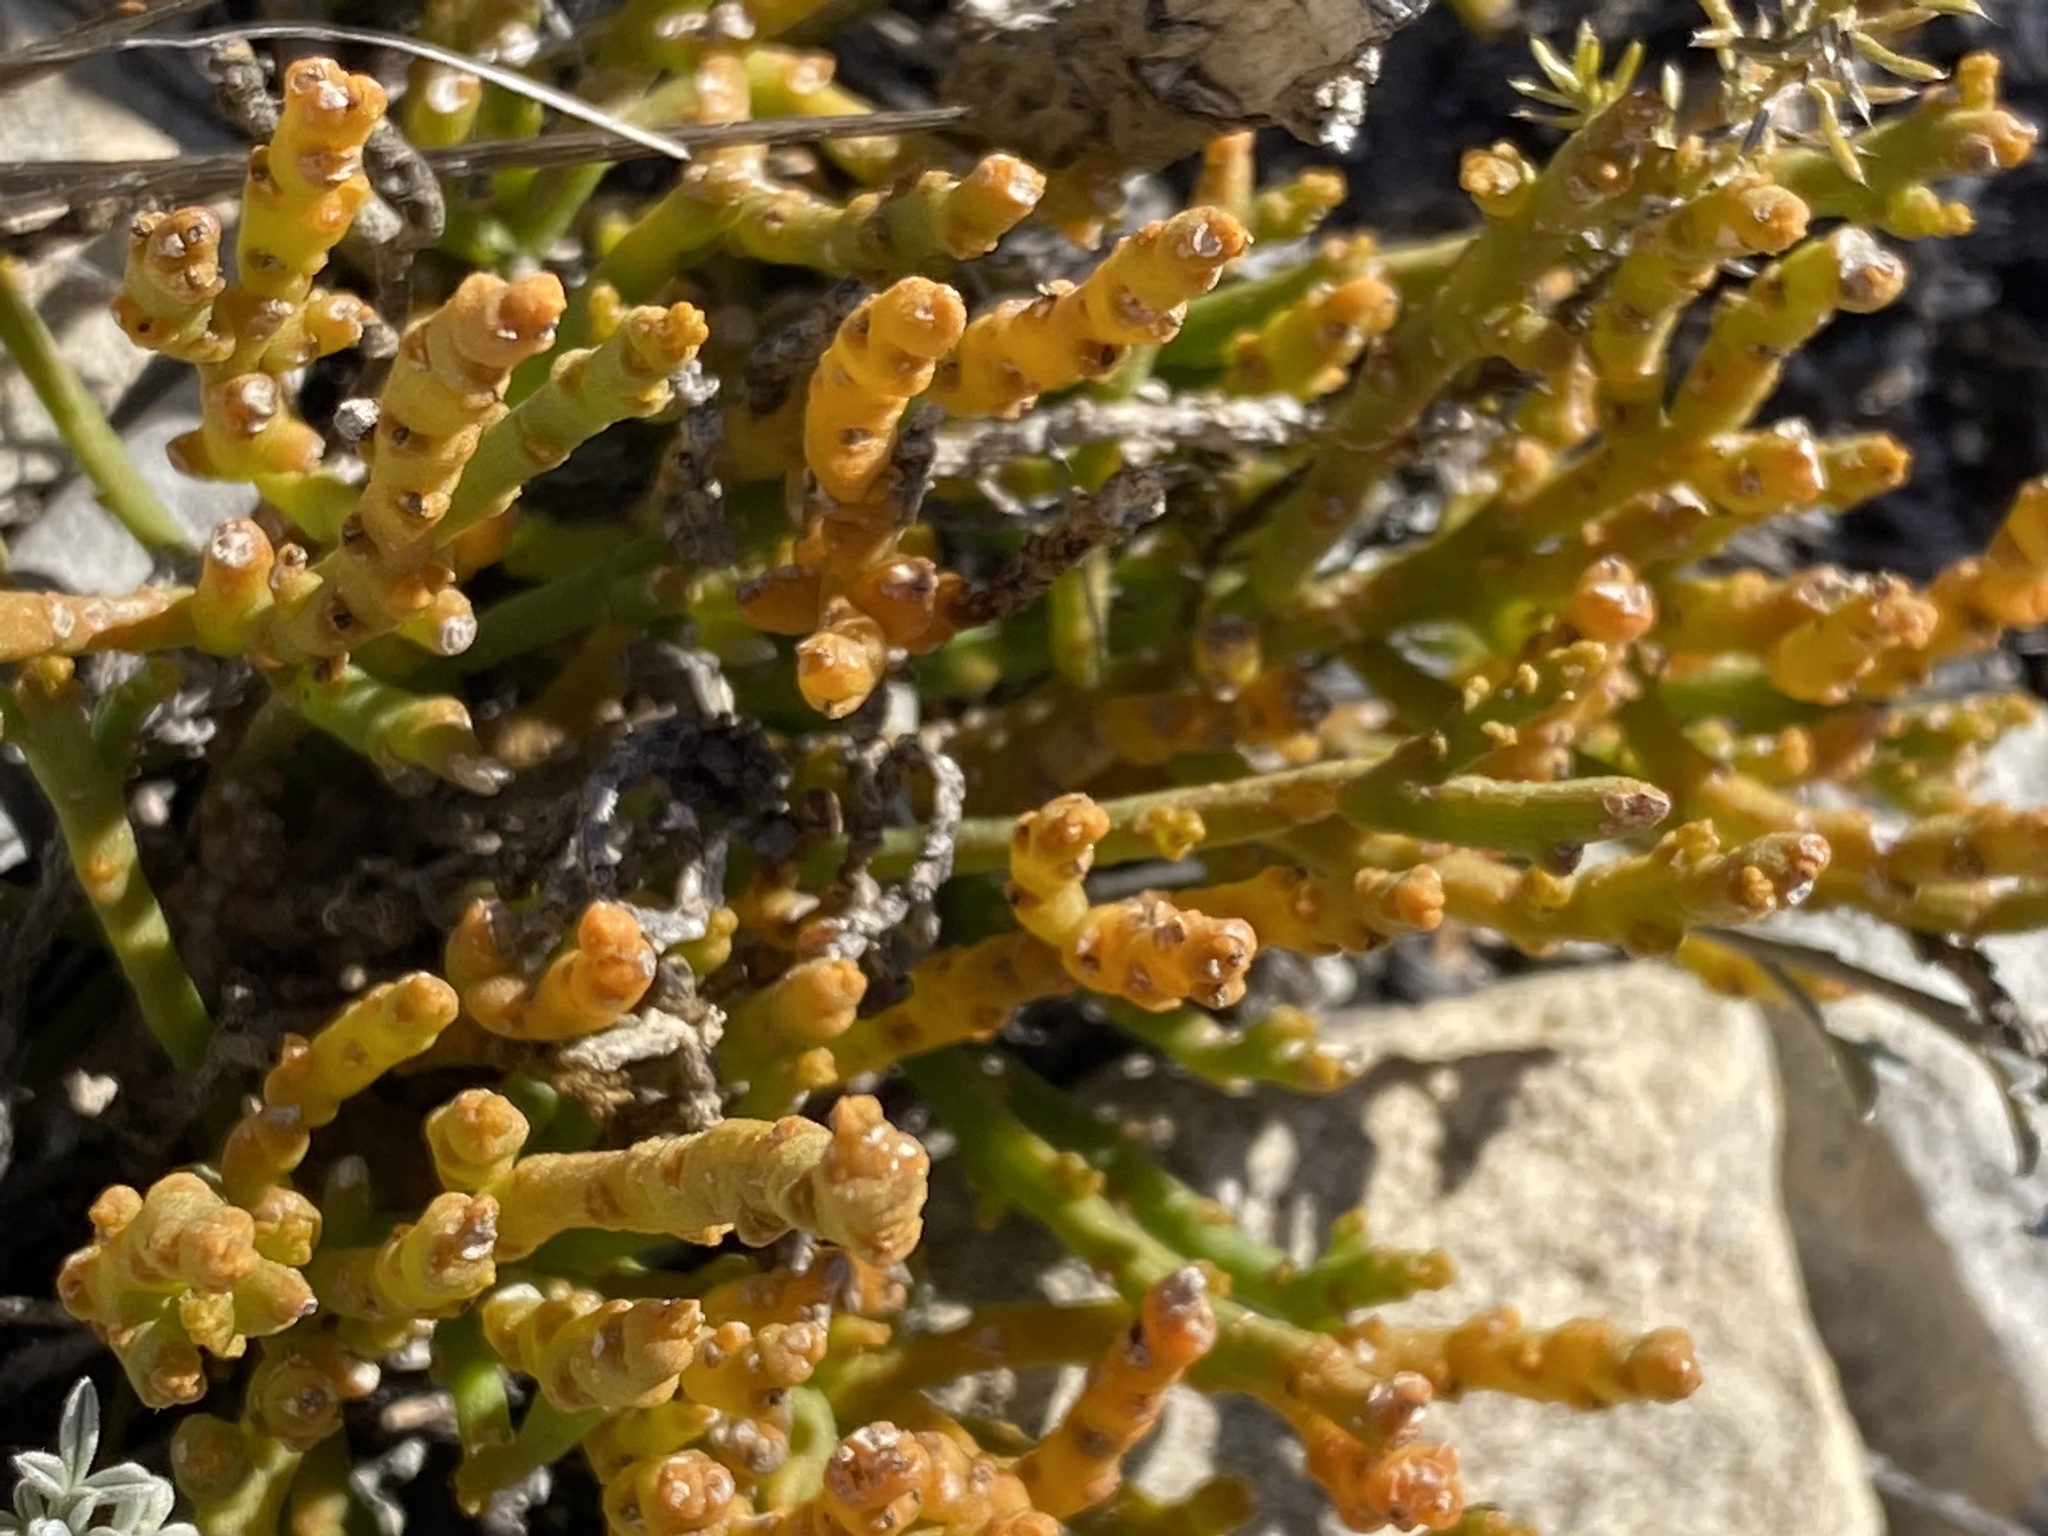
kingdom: Plantae
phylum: Tracheophyta
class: Magnoliopsida
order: Santalales
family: Thesiaceae
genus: Thesium
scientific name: Thesium fragile
